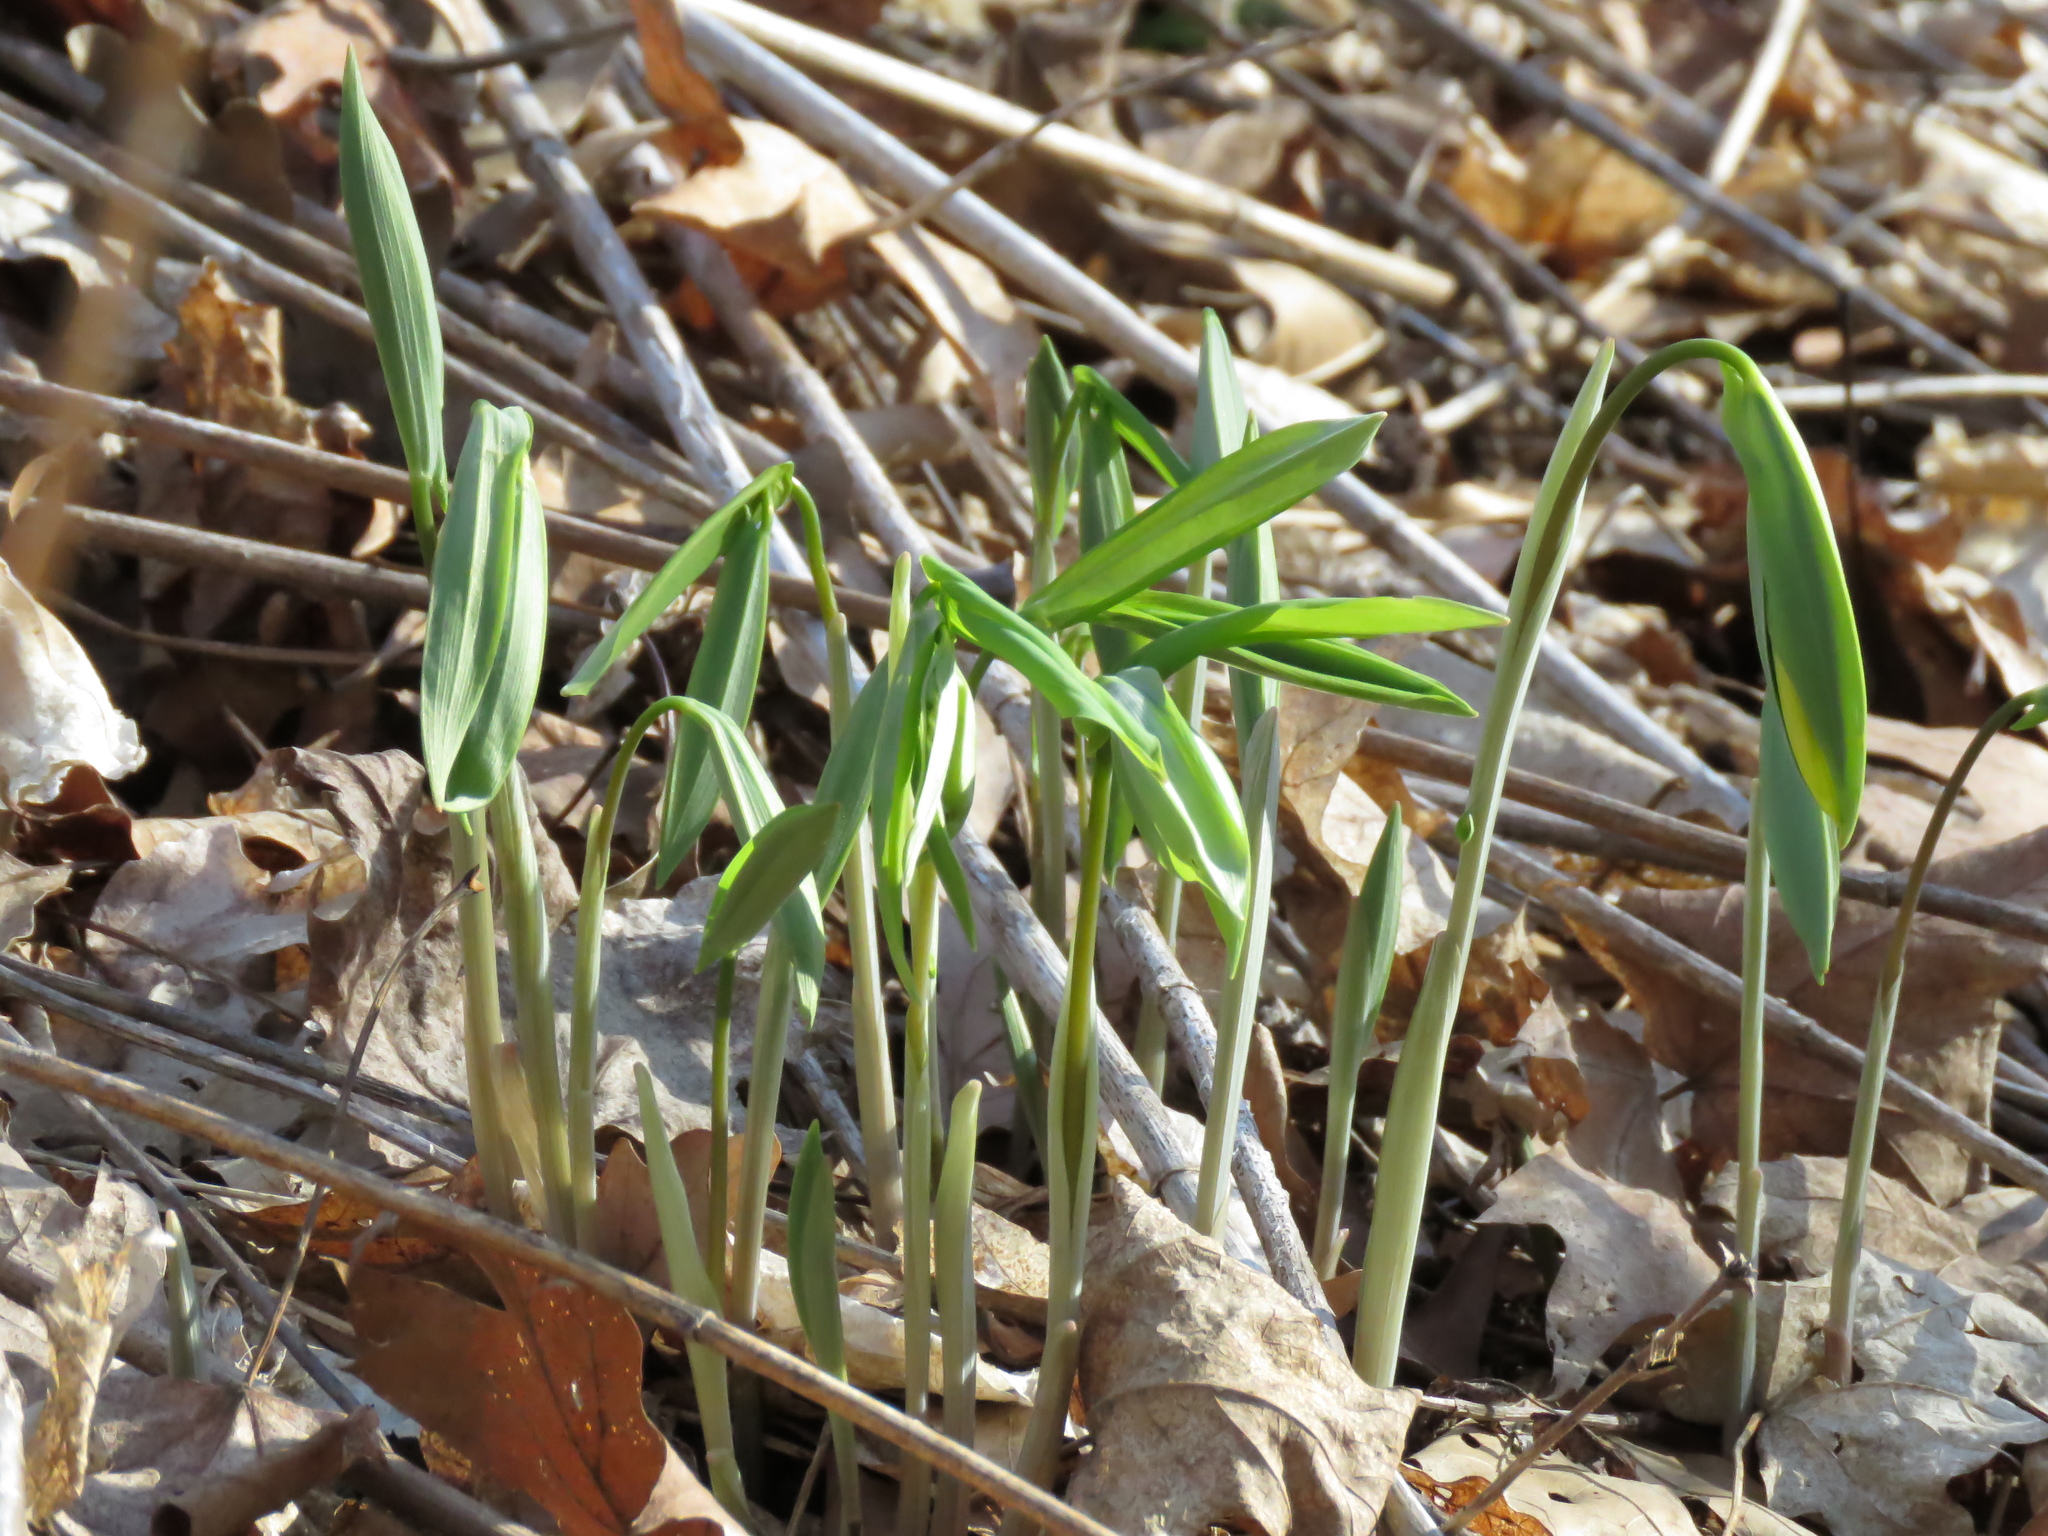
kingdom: Plantae
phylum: Tracheophyta
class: Liliopsida
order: Liliales
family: Colchicaceae
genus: Uvularia
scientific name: Uvularia grandiflora
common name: Bellwort
